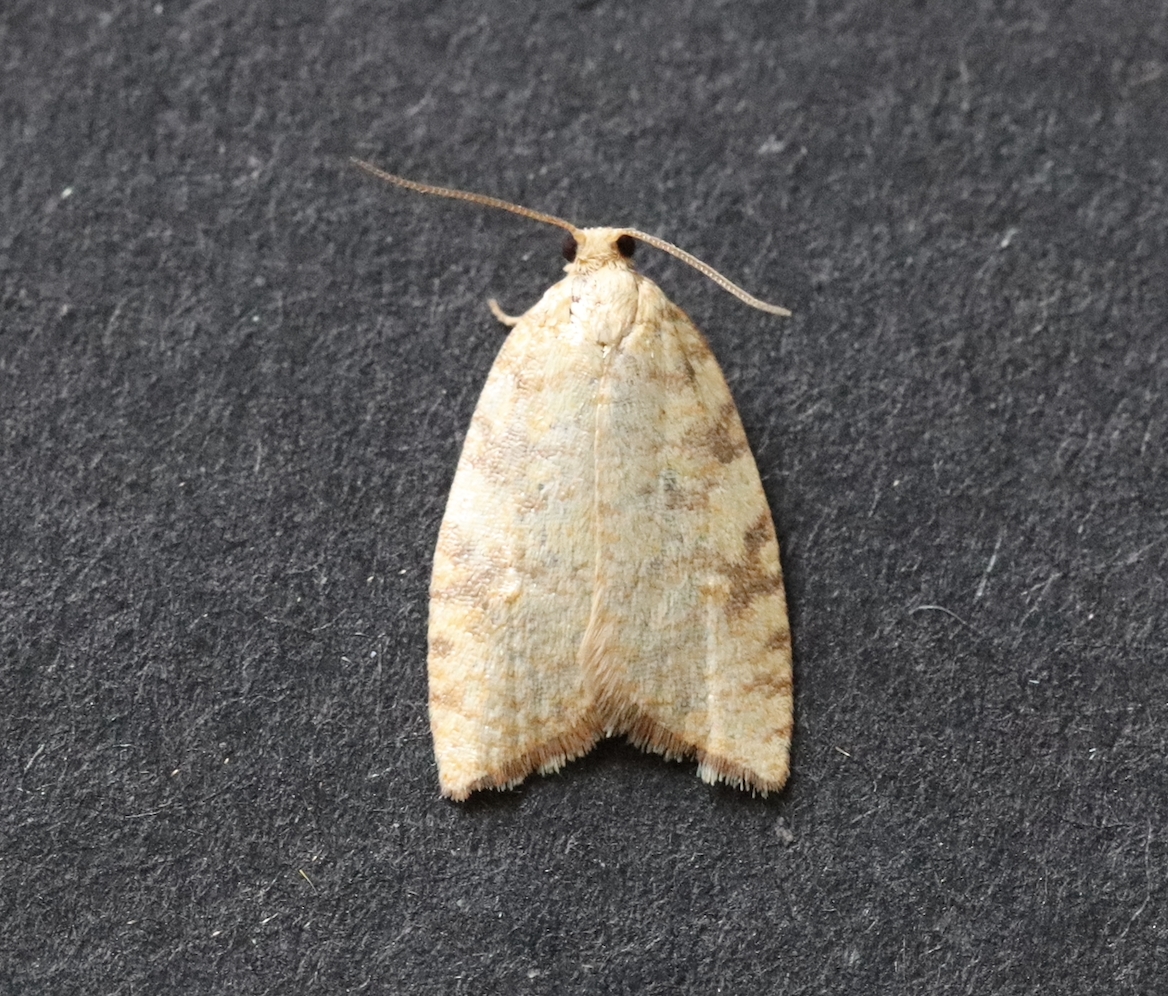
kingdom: Animalia
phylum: Arthropoda
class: Insecta
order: Lepidoptera
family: Tortricidae
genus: Aleimma
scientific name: Aleimma loeflingiana
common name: Yellow oak button
